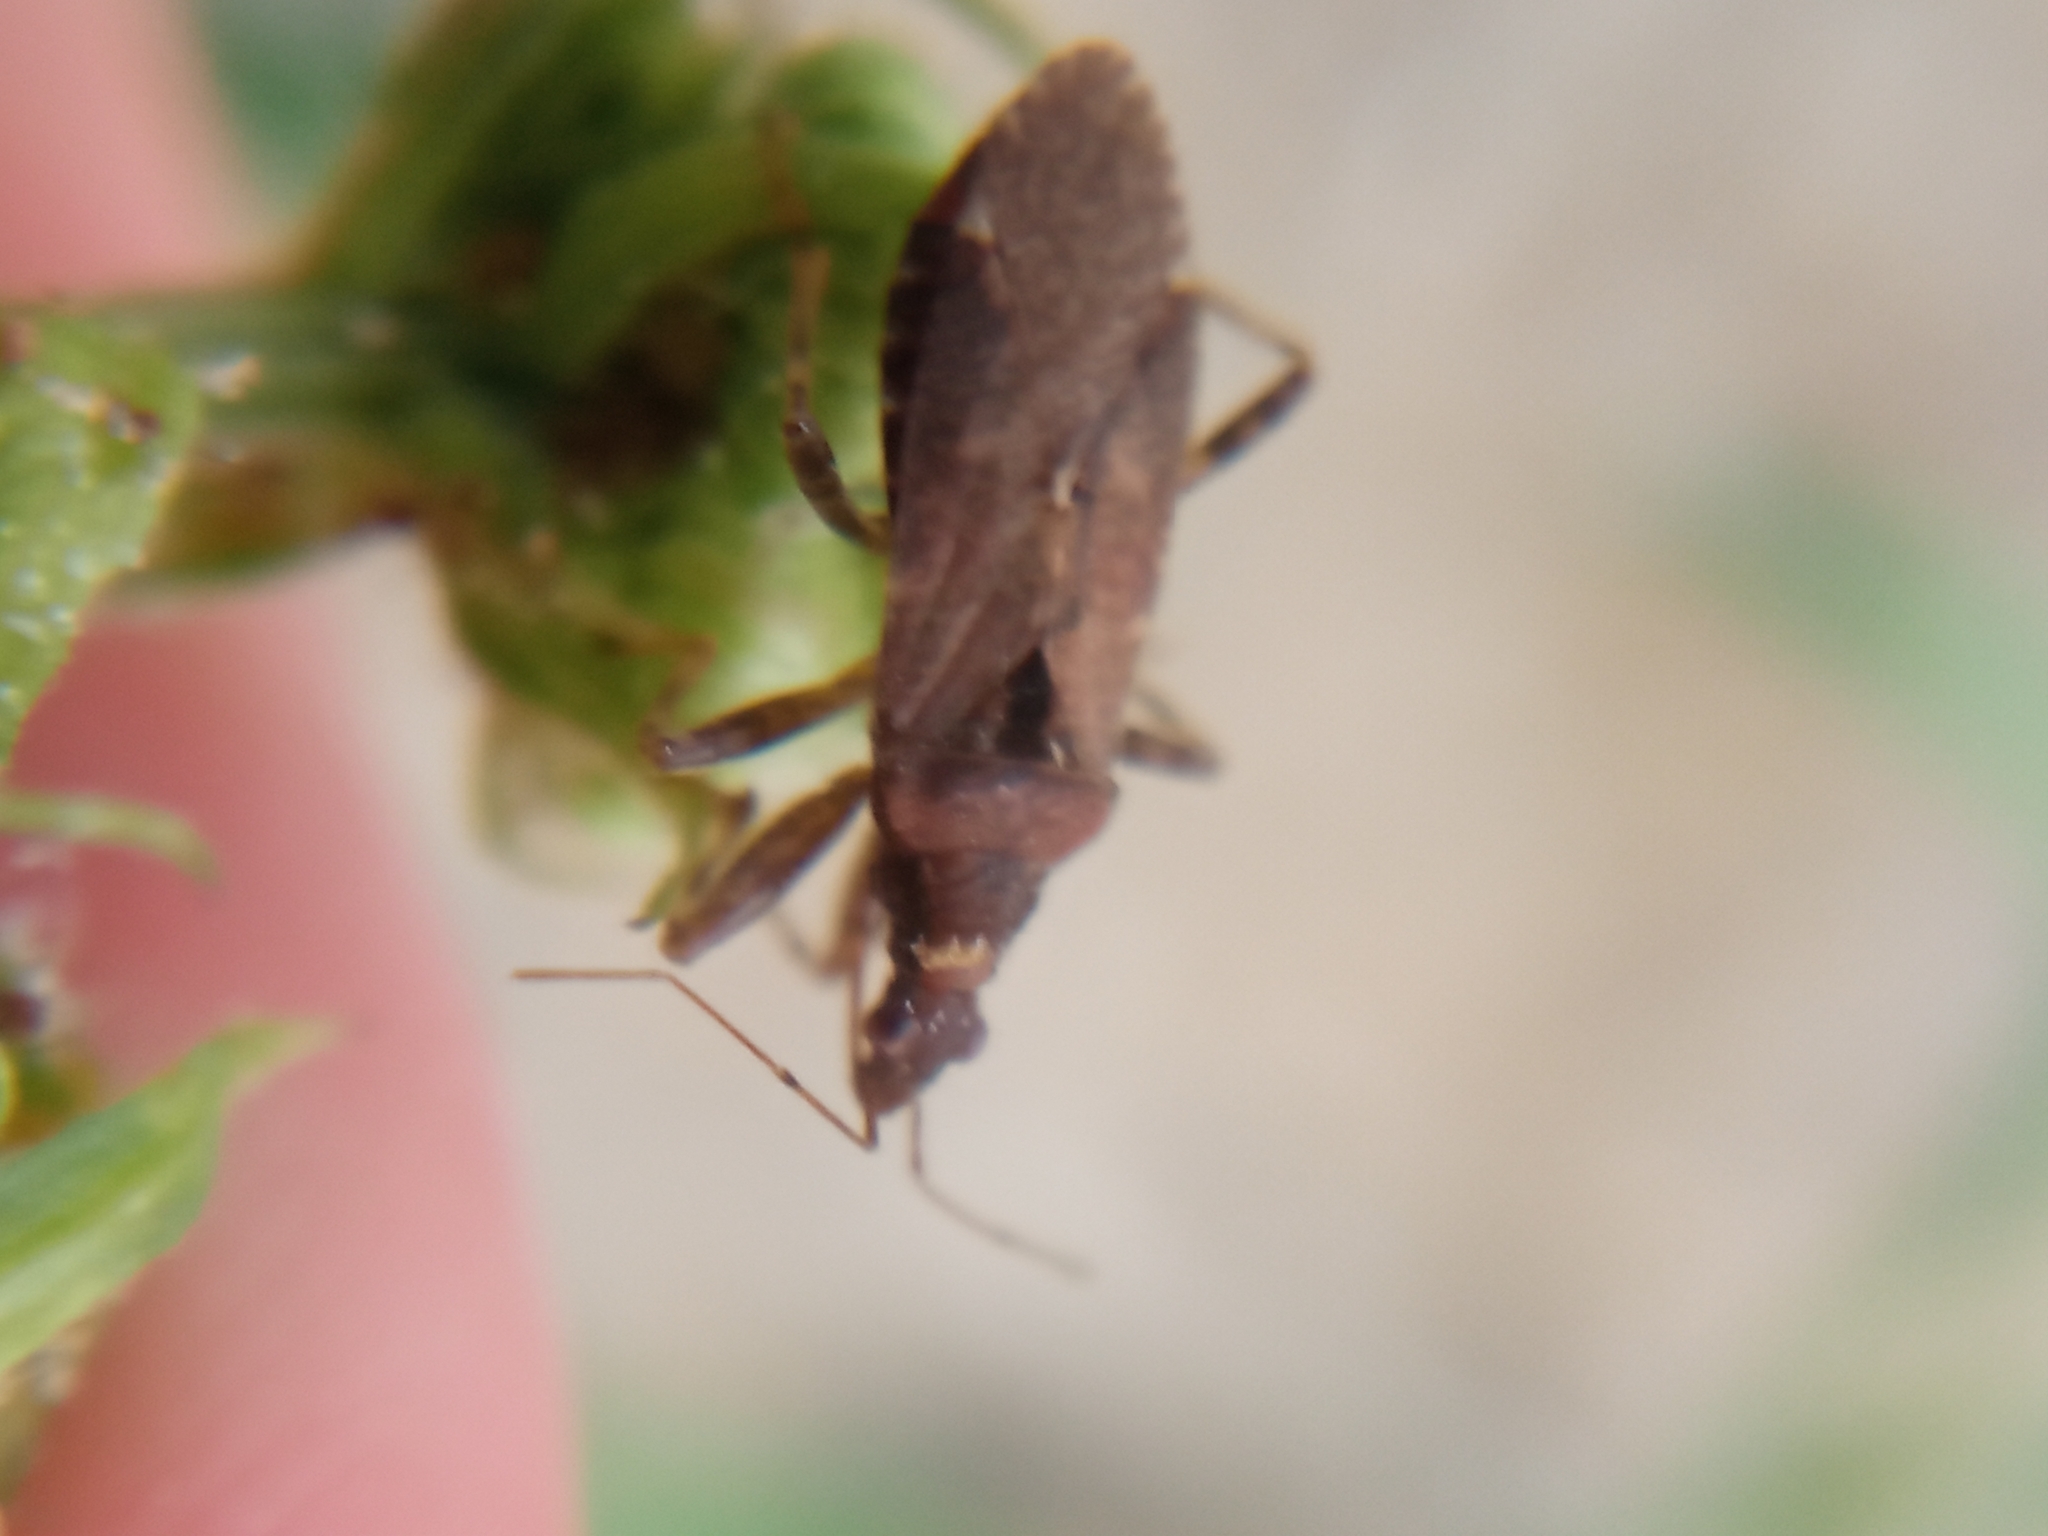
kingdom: Animalia
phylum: Arthropoda
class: Insecta
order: Hemiptera
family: Nabidae
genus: Himacerus
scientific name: Himacerus mirmicoides
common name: Ant damsel bug
